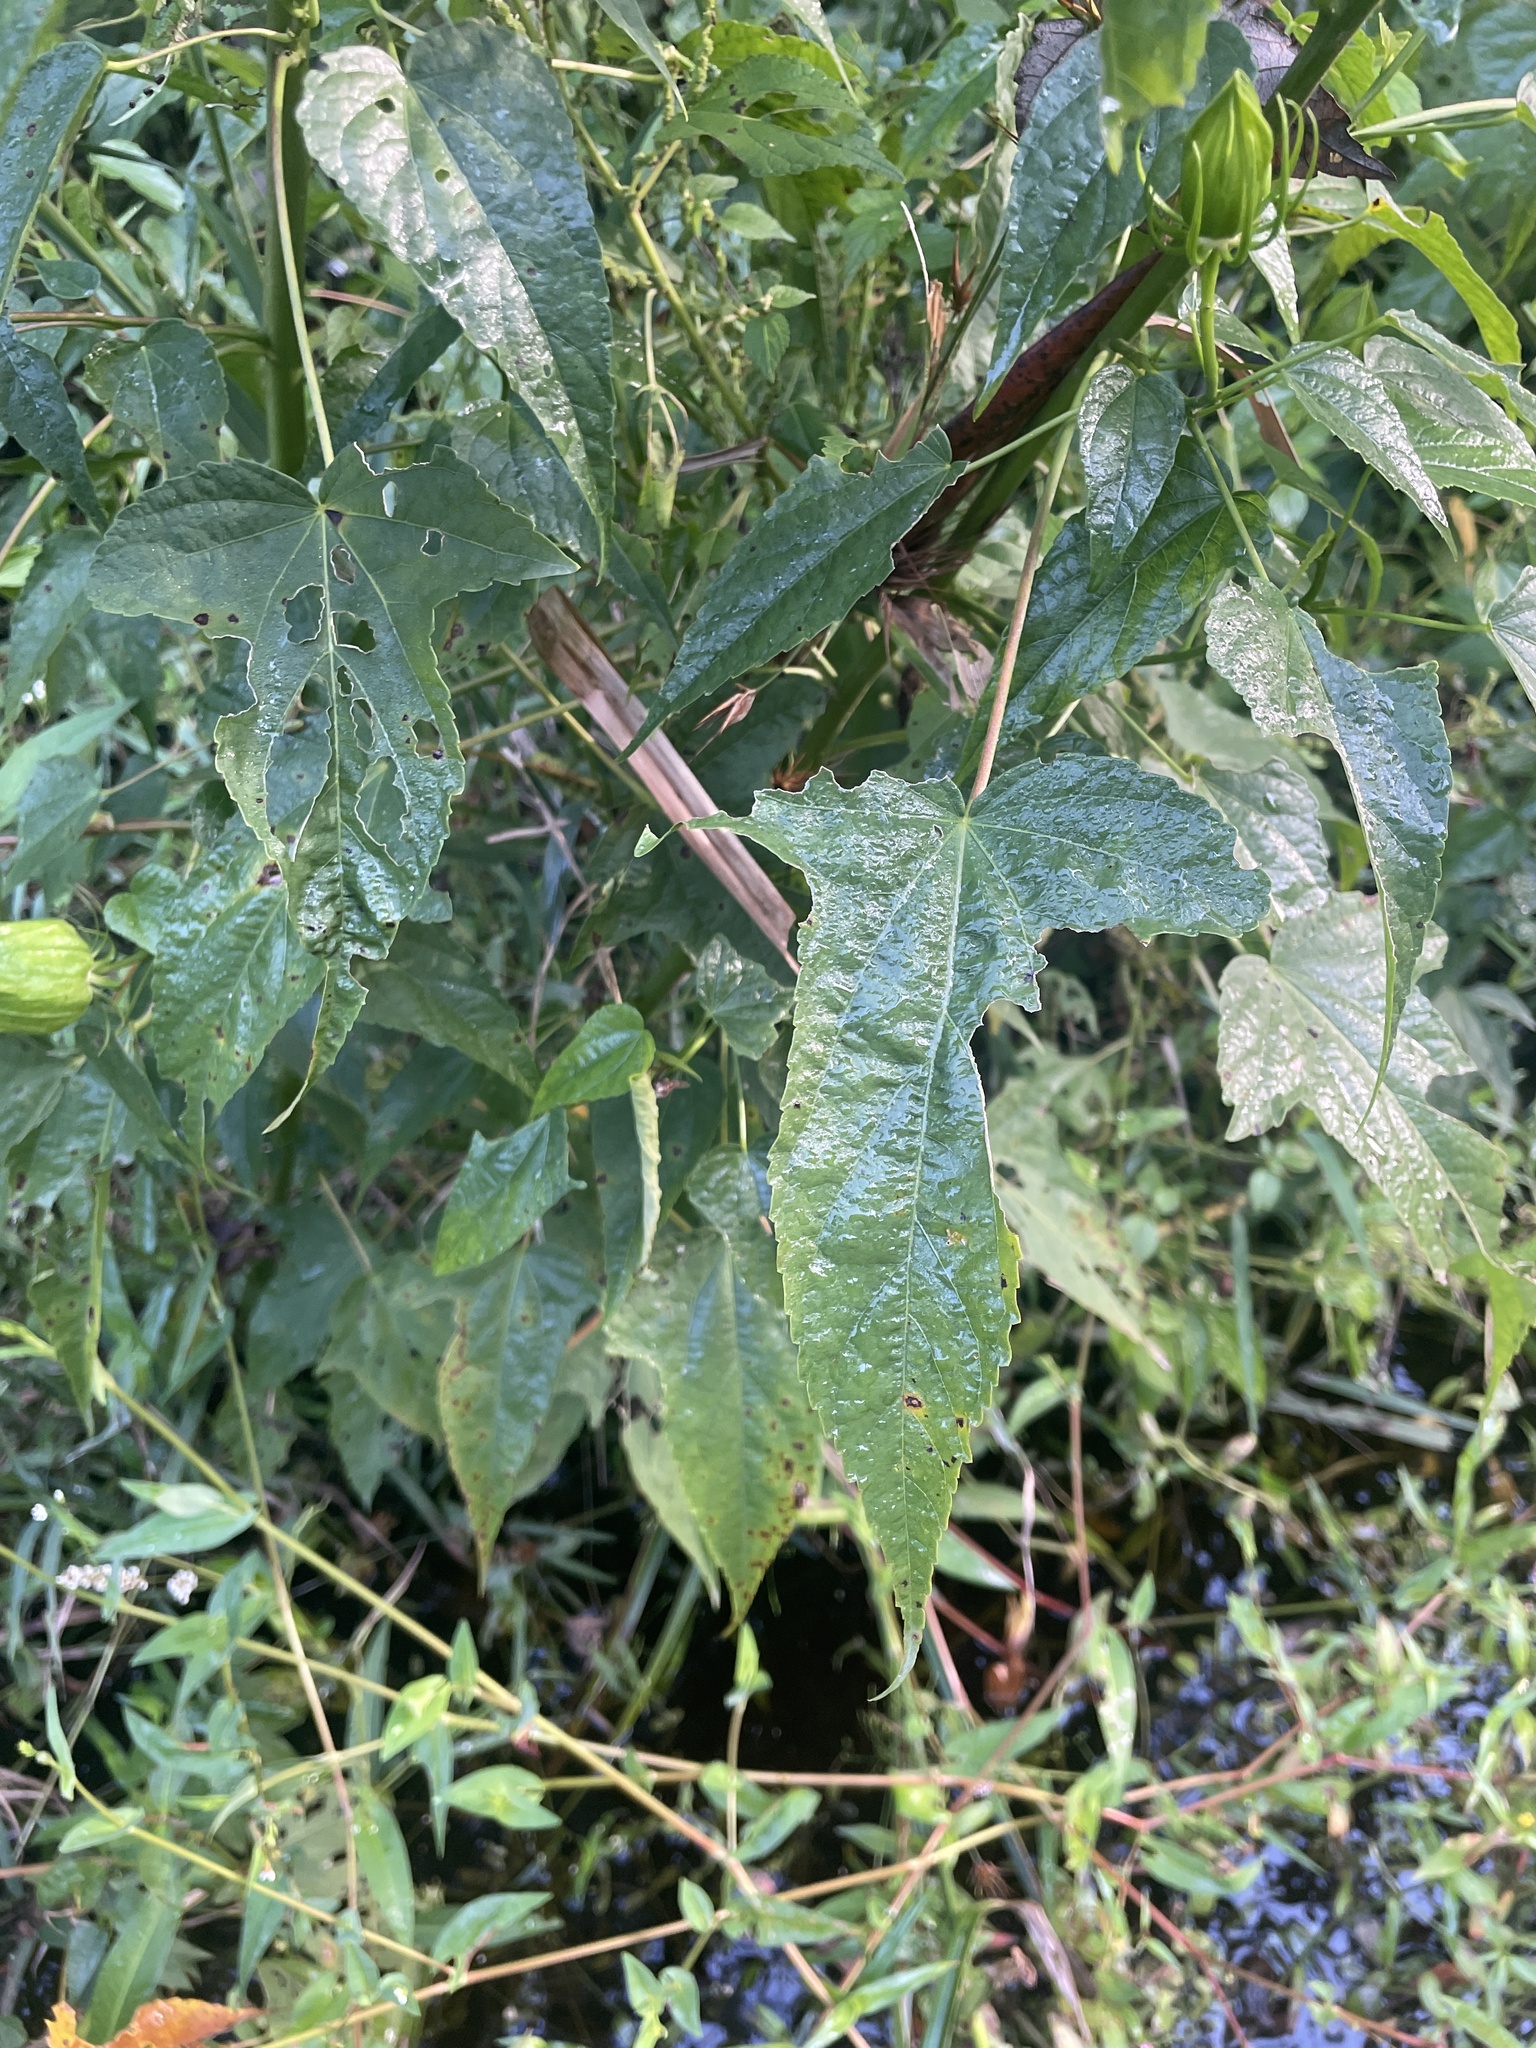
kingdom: Plantae
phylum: Tracheophyta
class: Magnoliopsida
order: Malvales
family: Malvaceae
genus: Hibiscus
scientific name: Hibiscus laevis
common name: Scarlet rose-mallow
